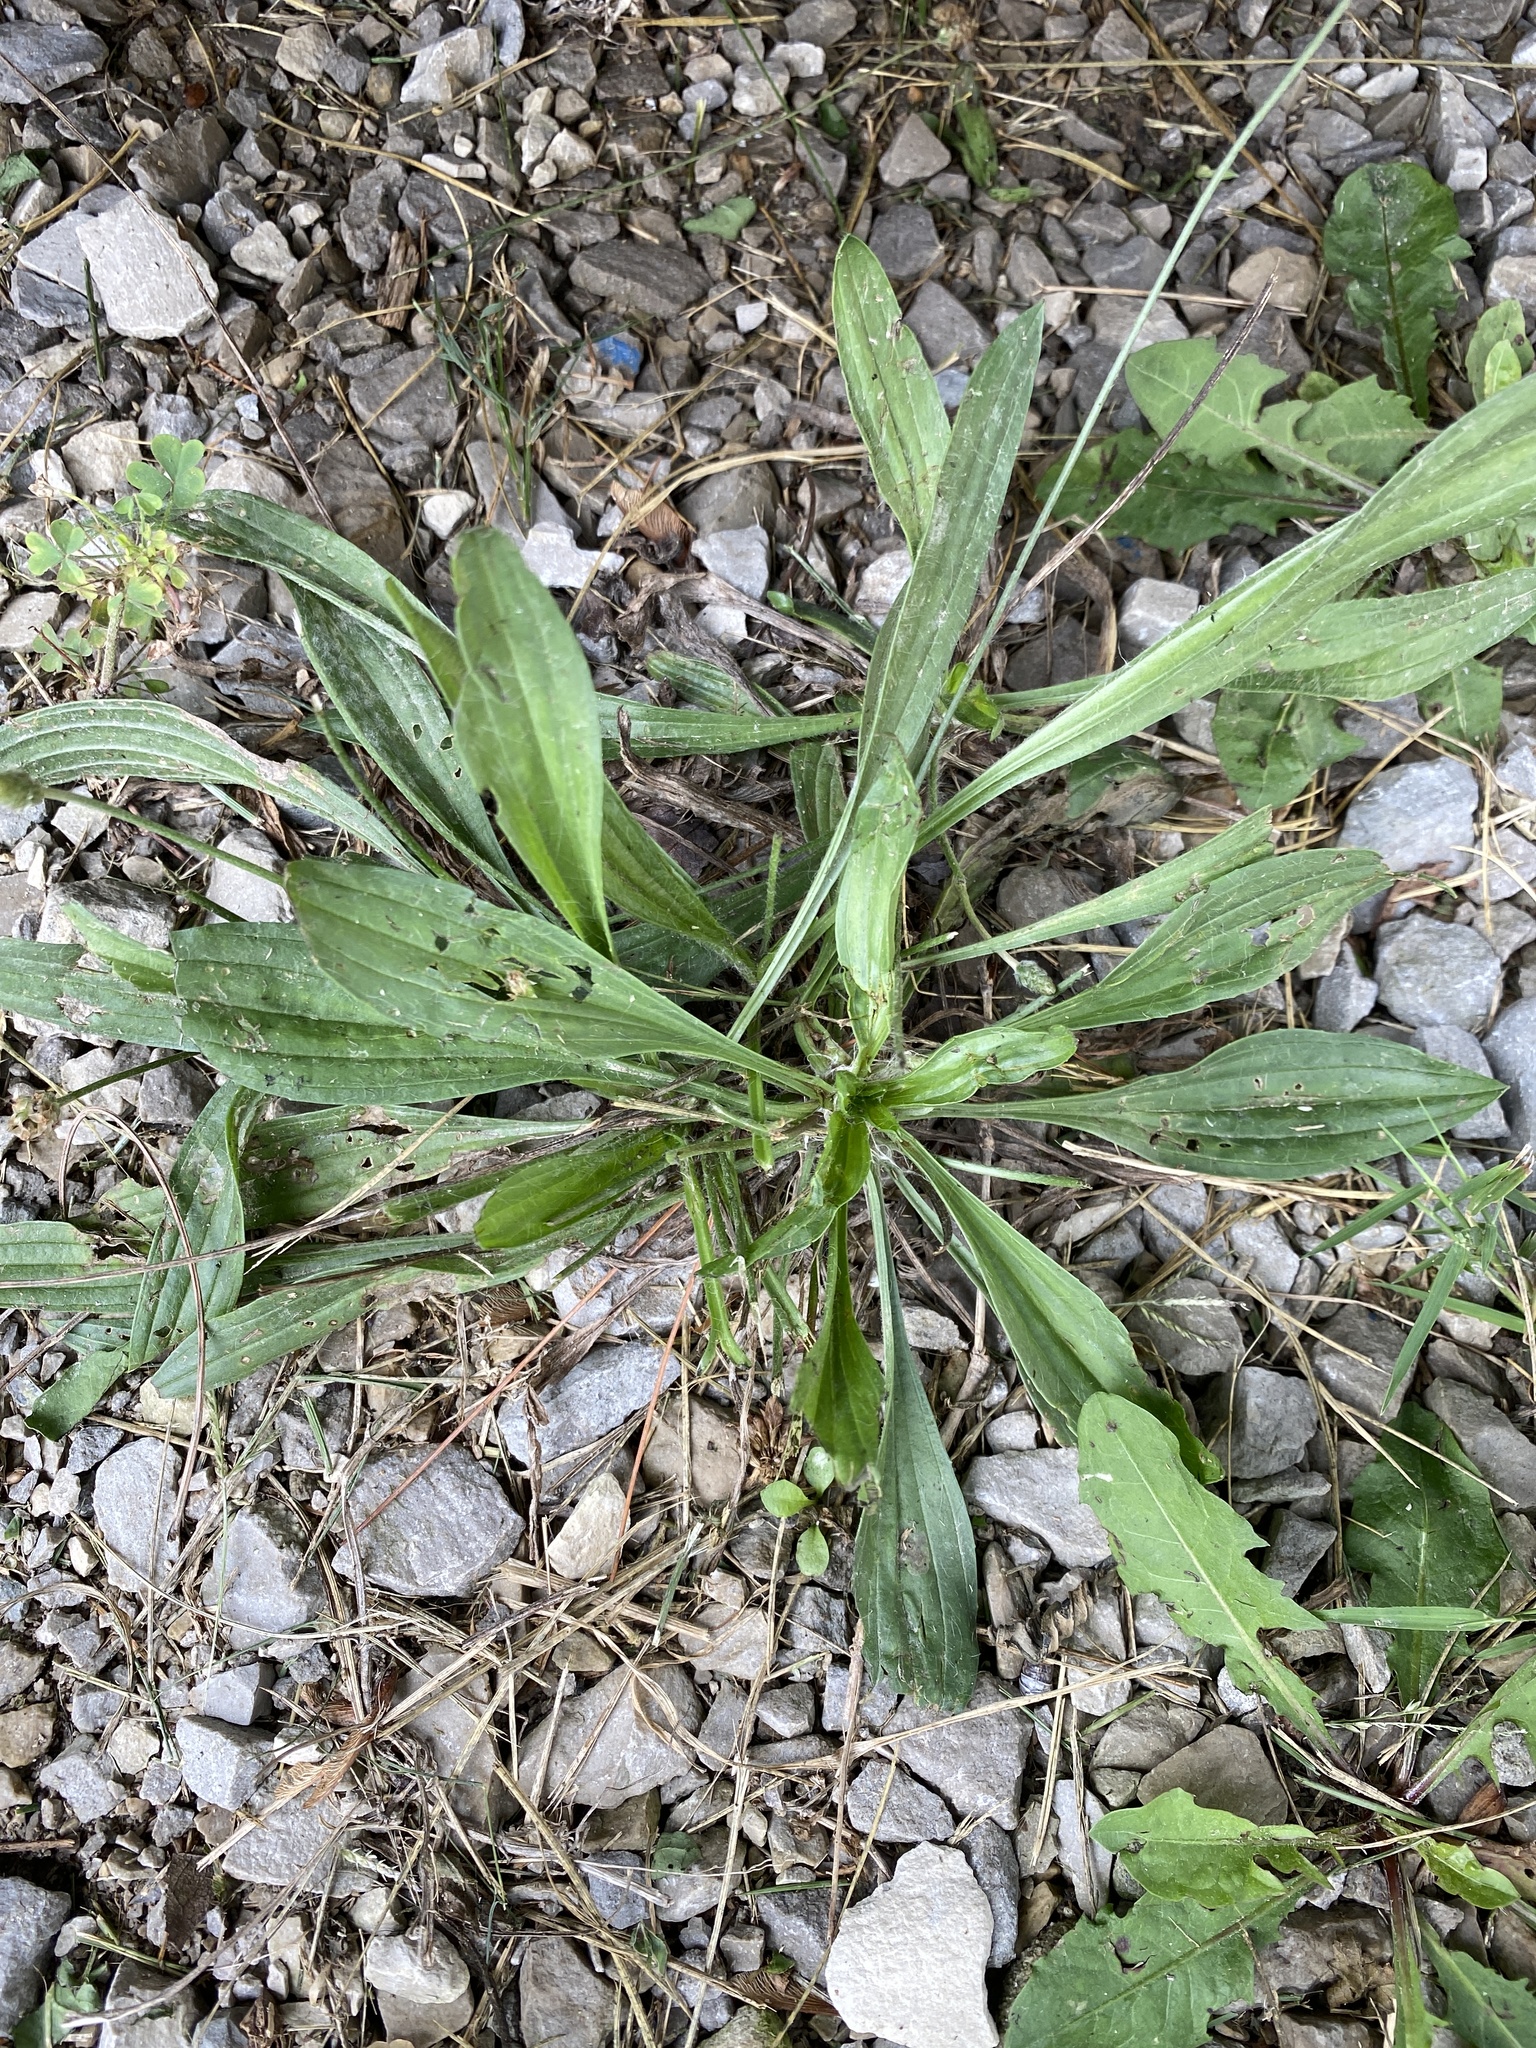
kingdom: Plantae
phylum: Tracheophyta
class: Magnoliopsida
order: Lamiales
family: Plantaginaceae
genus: Plantago
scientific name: Plantago lanceolata
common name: Ribwort plantain
